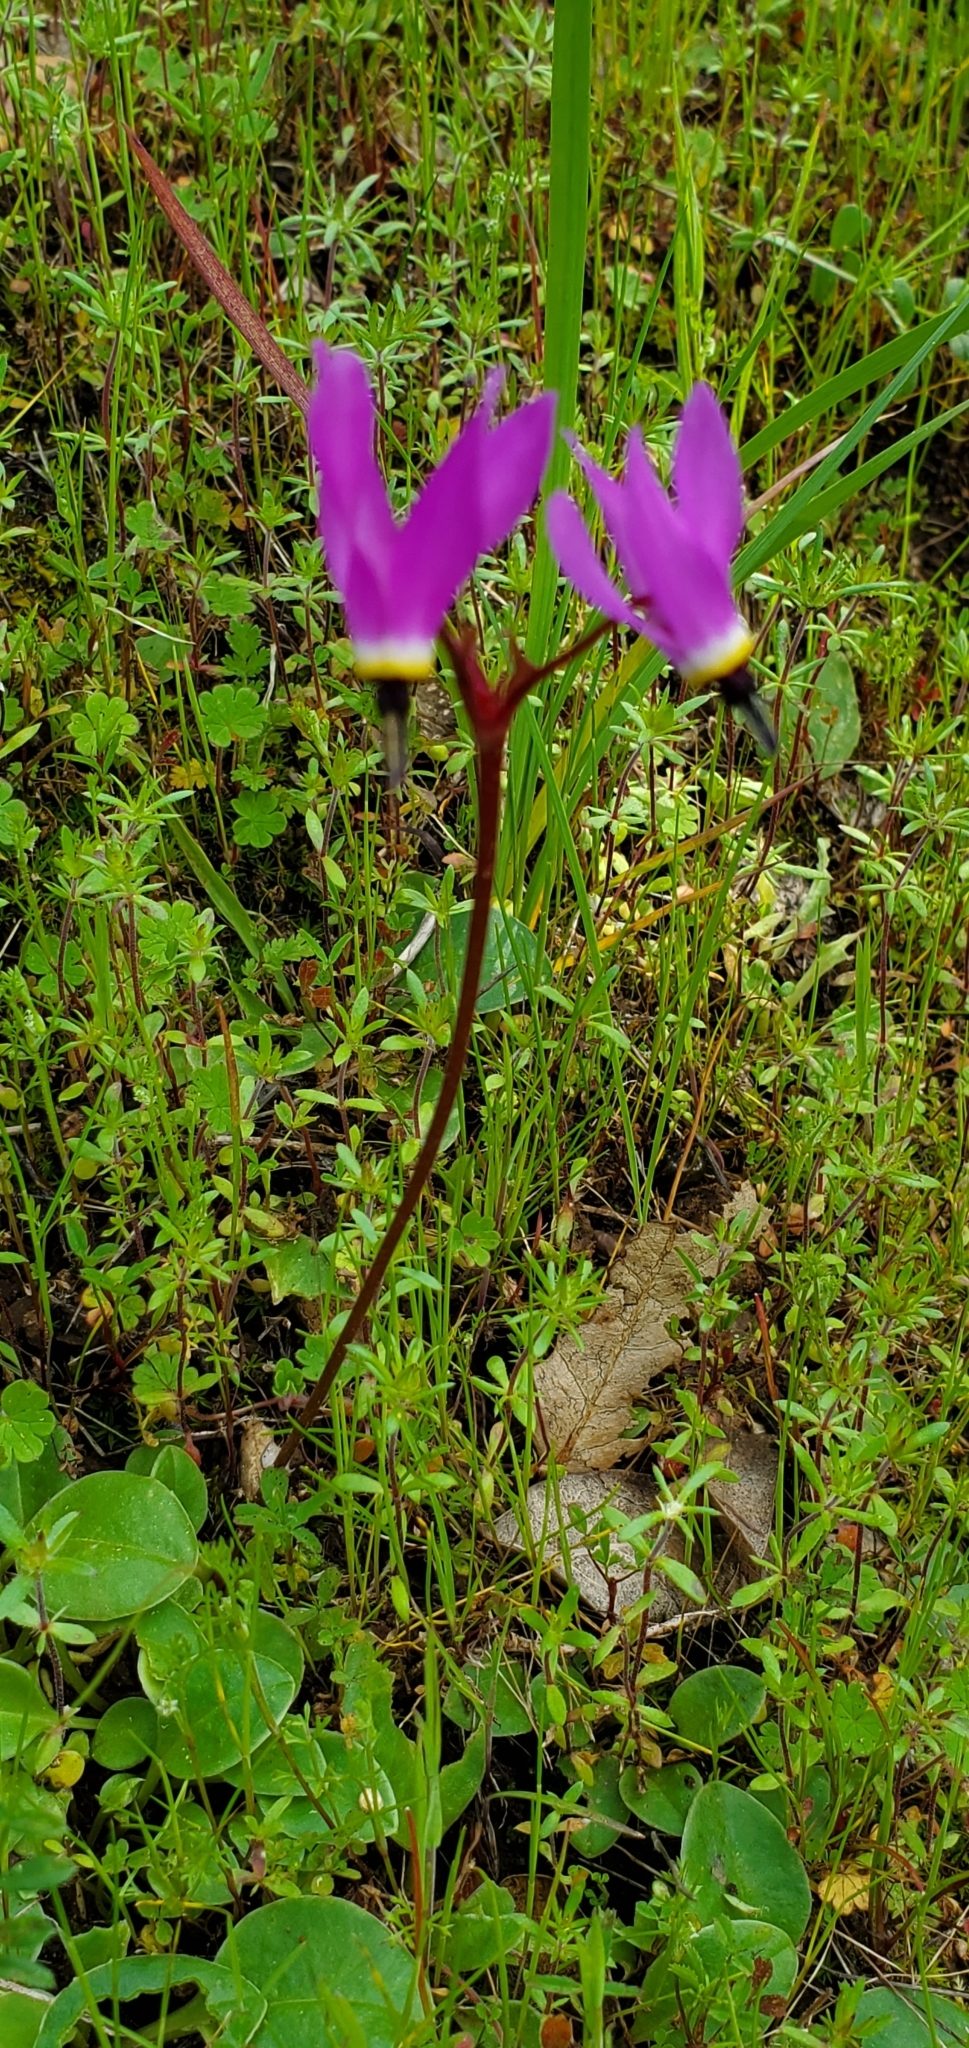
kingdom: Plantae
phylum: Tracheophyta
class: Magnoliopsida
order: Ericales
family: Primulaceae
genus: Dodecatheon
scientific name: Dodecatheon hendersonii
